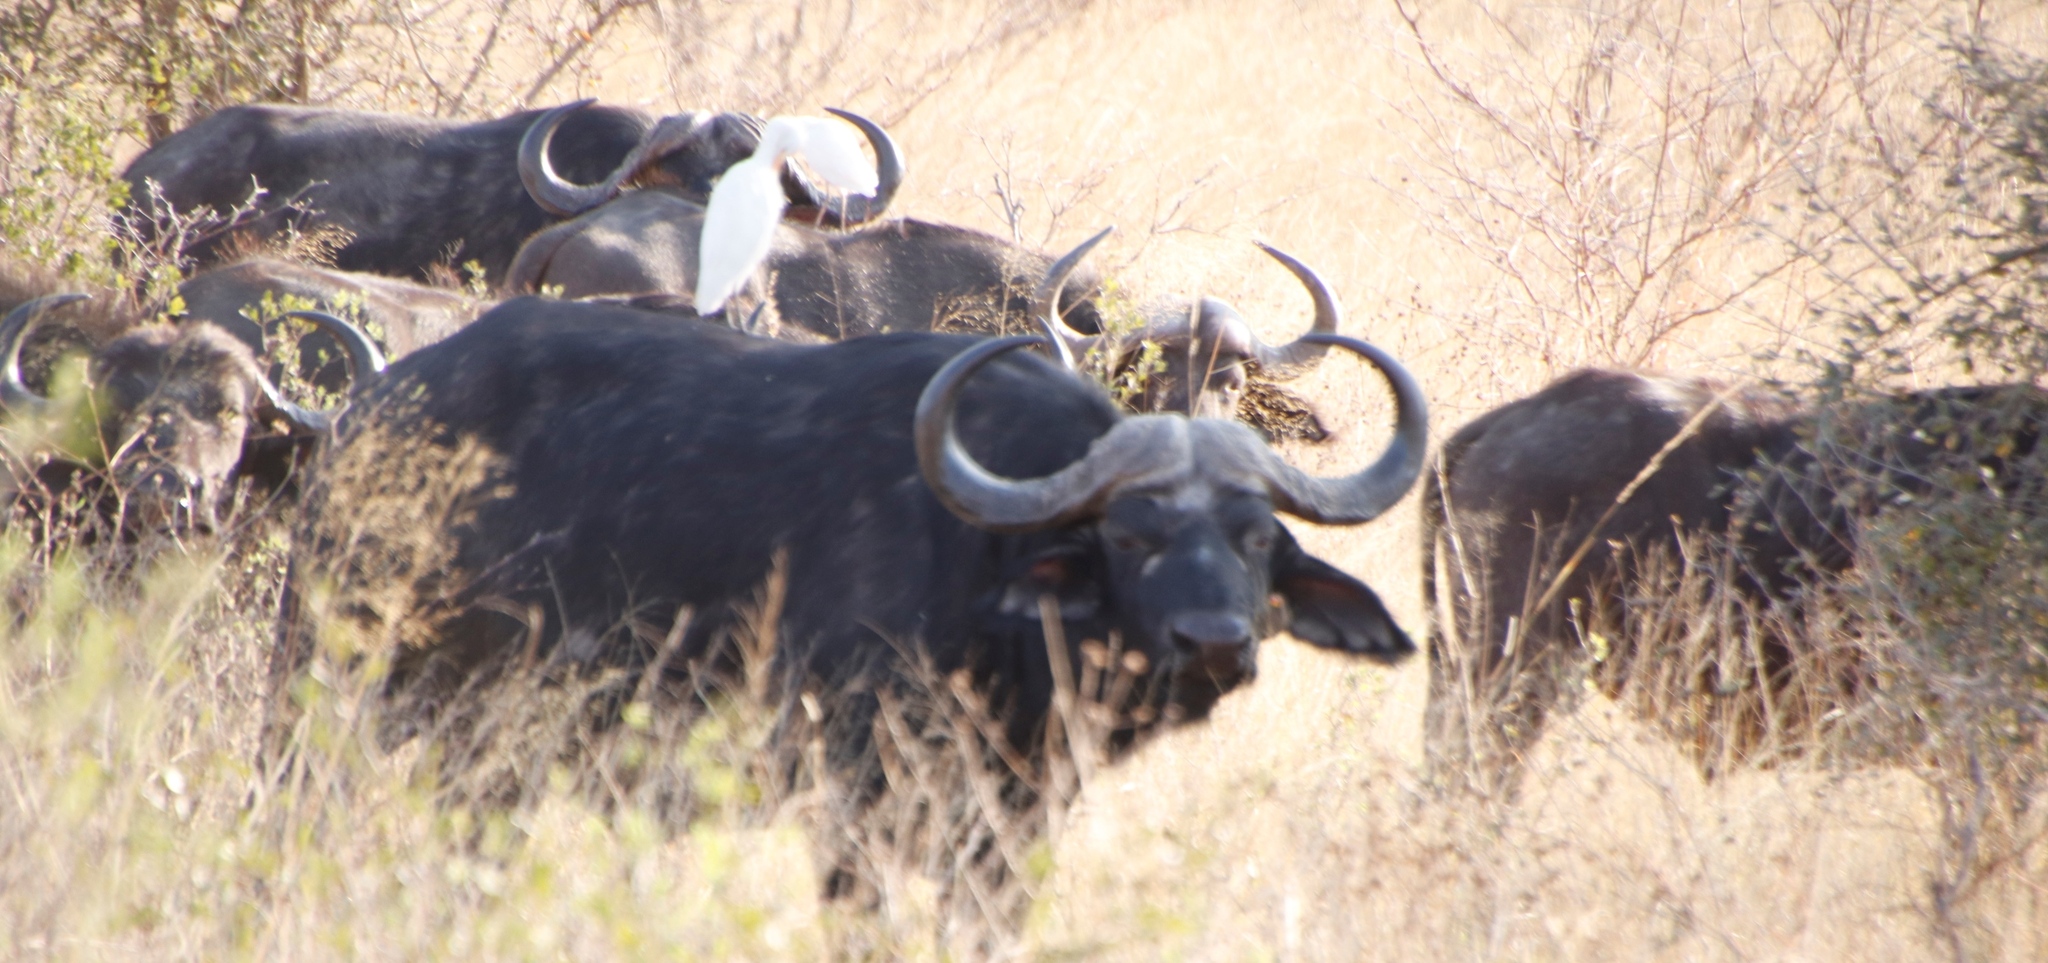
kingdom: Animalia
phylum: Chordata
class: Mammalia
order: Artiodactyla
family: Bovidae
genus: Syncerus
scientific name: Syncerus caffer
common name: African buffalo
